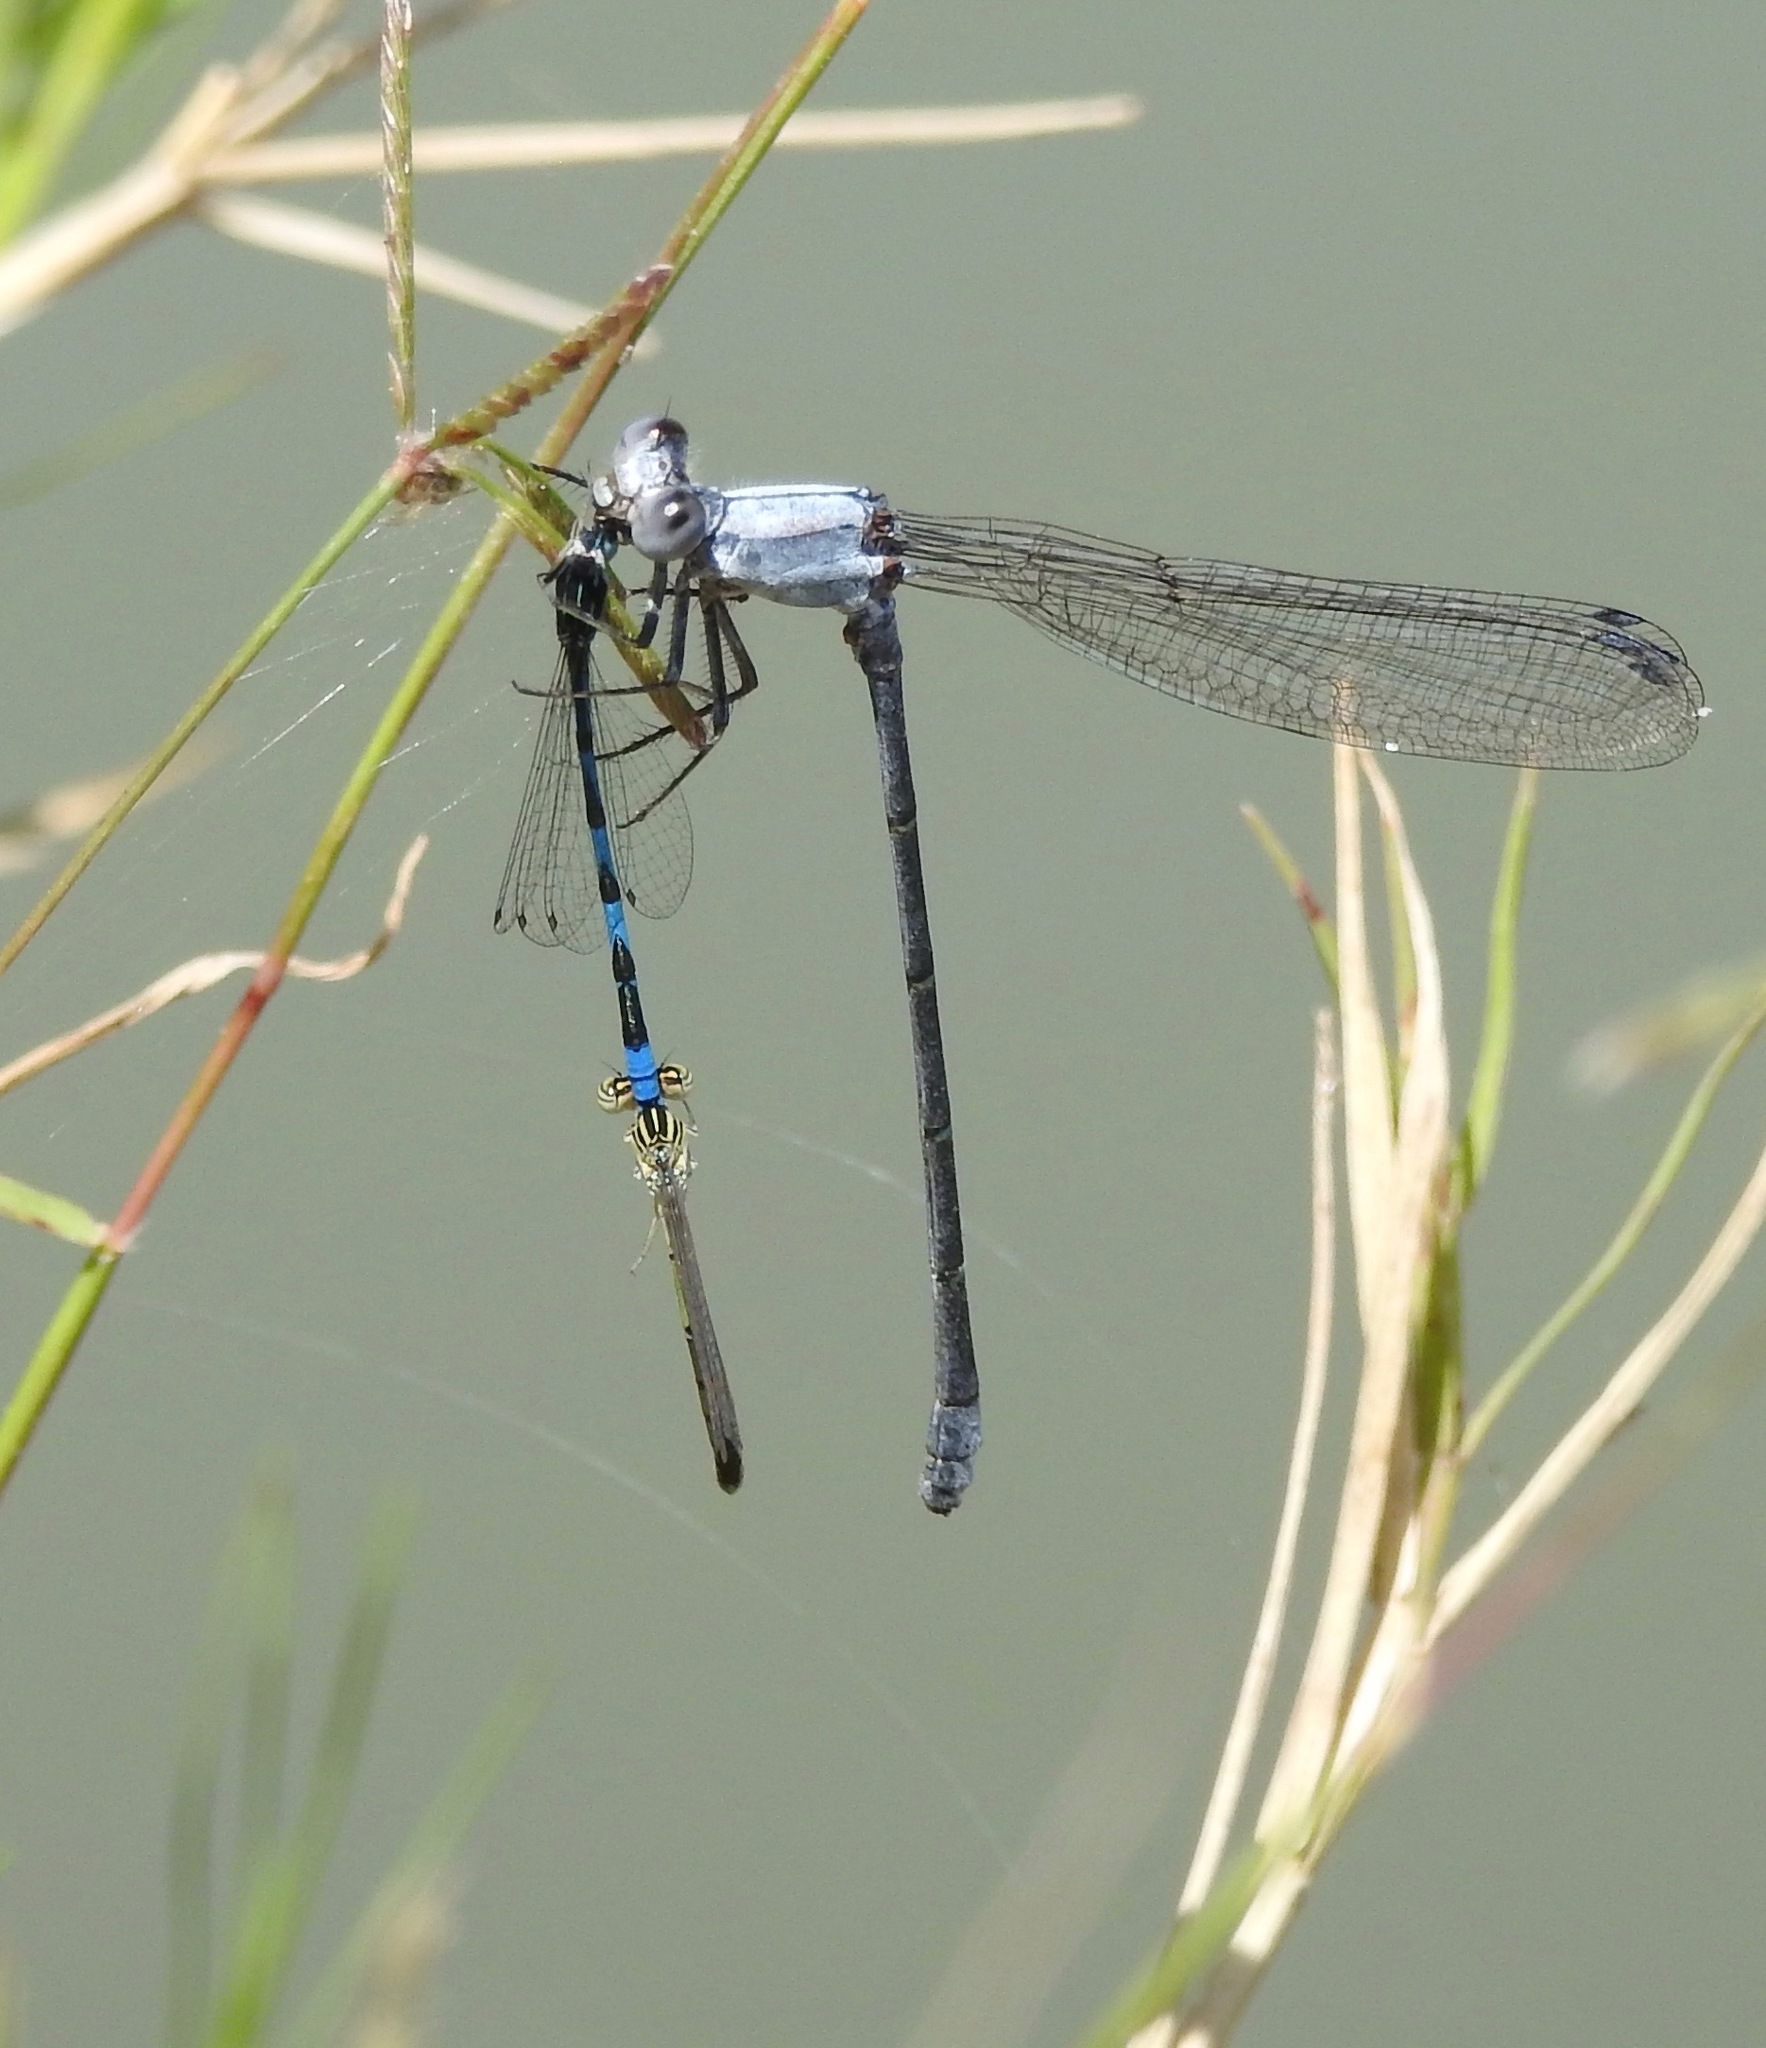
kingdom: Animalia
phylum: Arthropoda
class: Insecta
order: Odonata
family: Coenagrionidae
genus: Argia
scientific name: Argia moesta
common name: Powdered dancer
